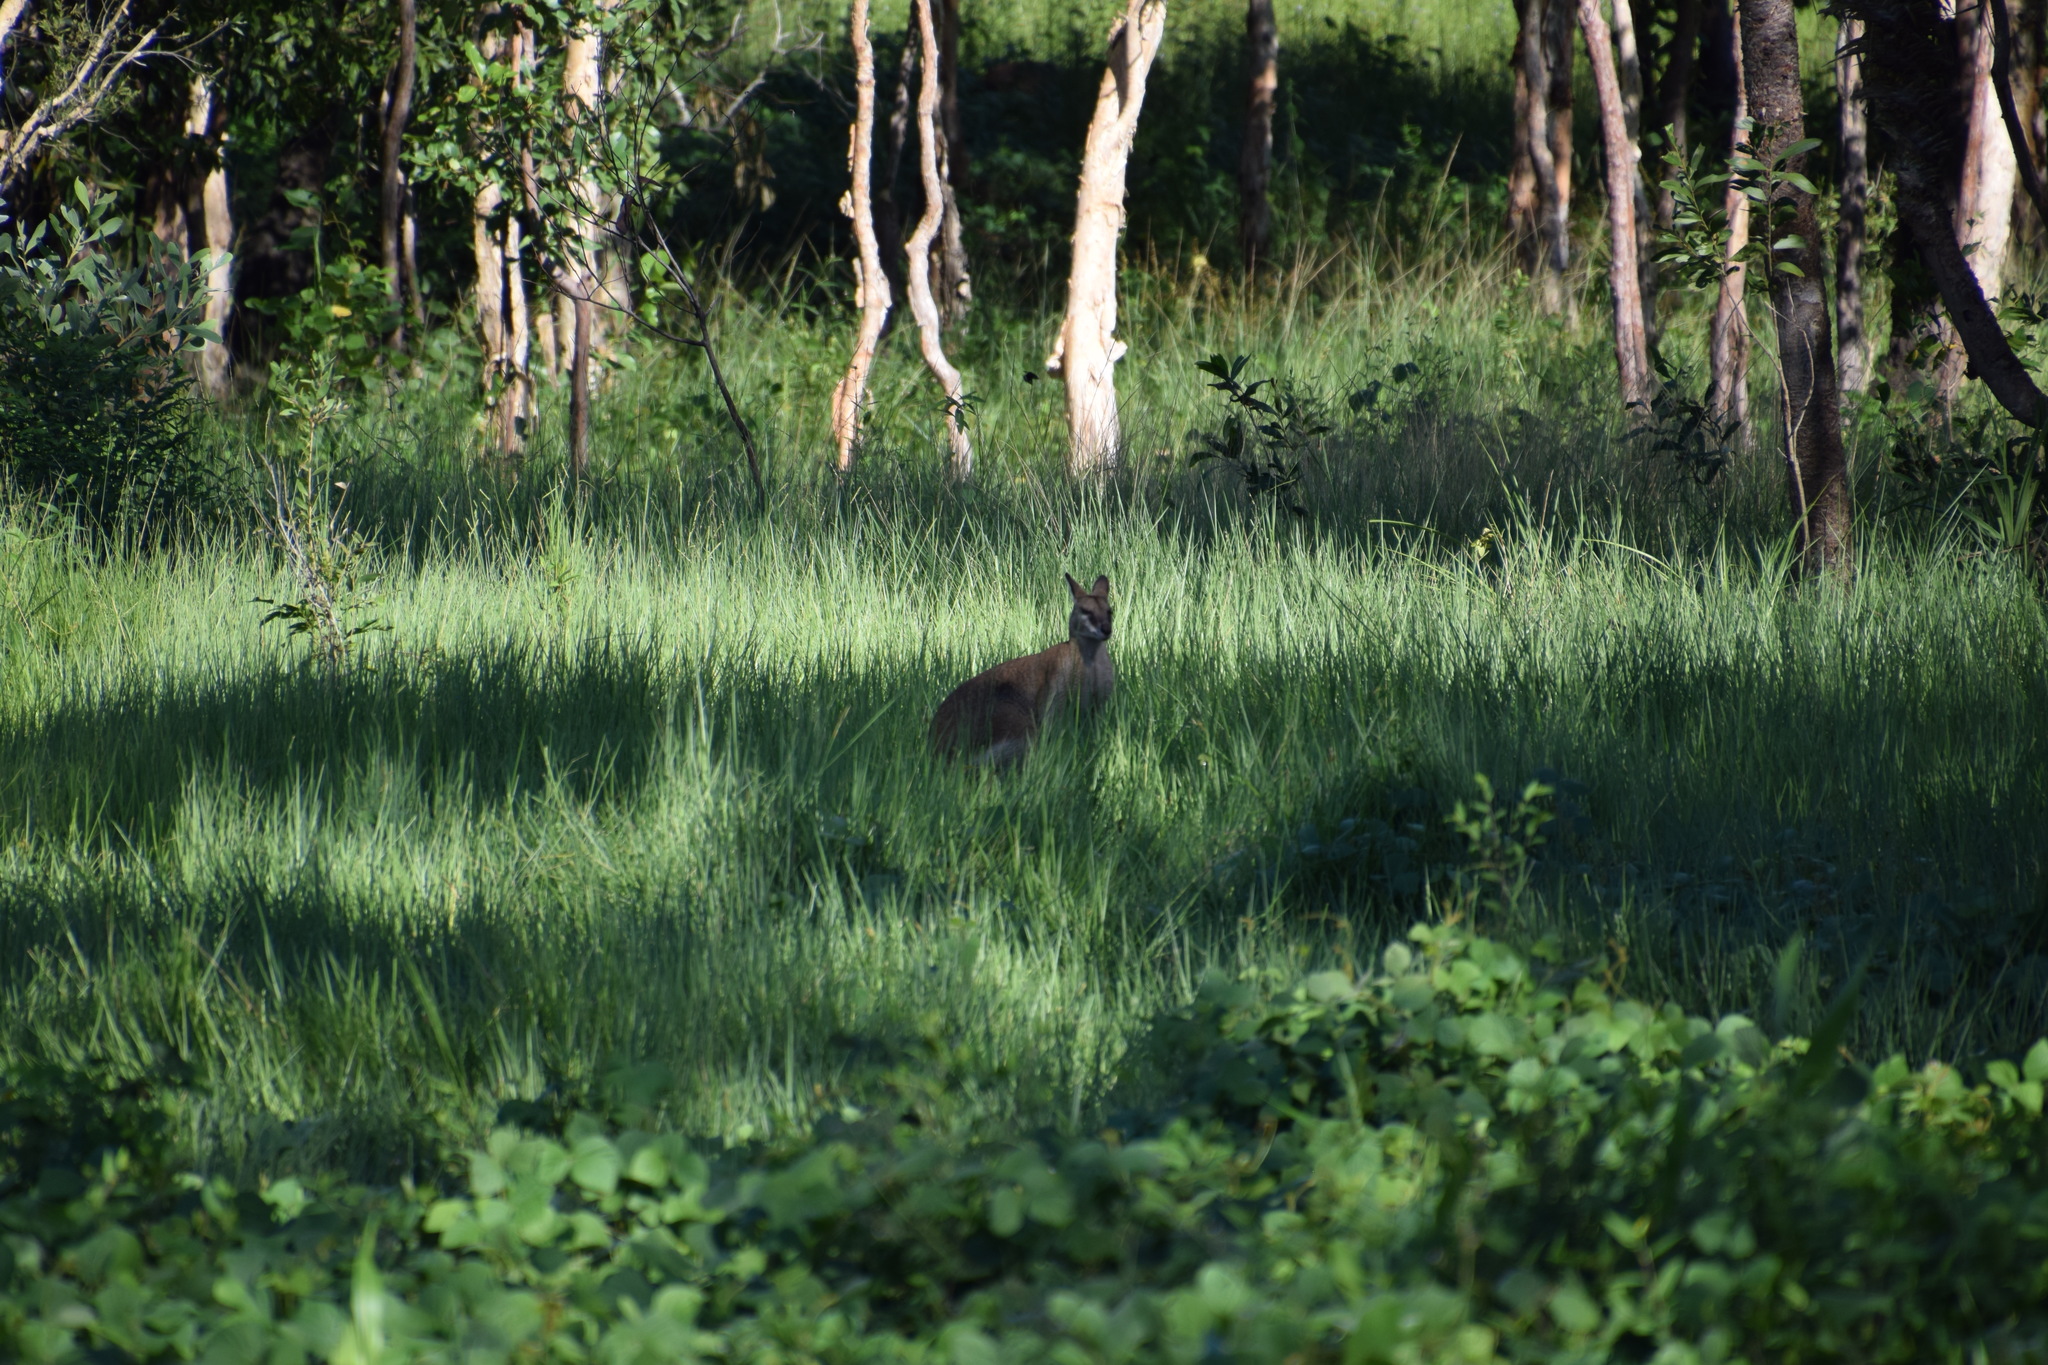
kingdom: Animalia
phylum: Chordata
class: Mammalia
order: Diprotodontia
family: Macropodidae
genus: Macropus
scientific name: Macropus agilis
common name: Agile wallaby
